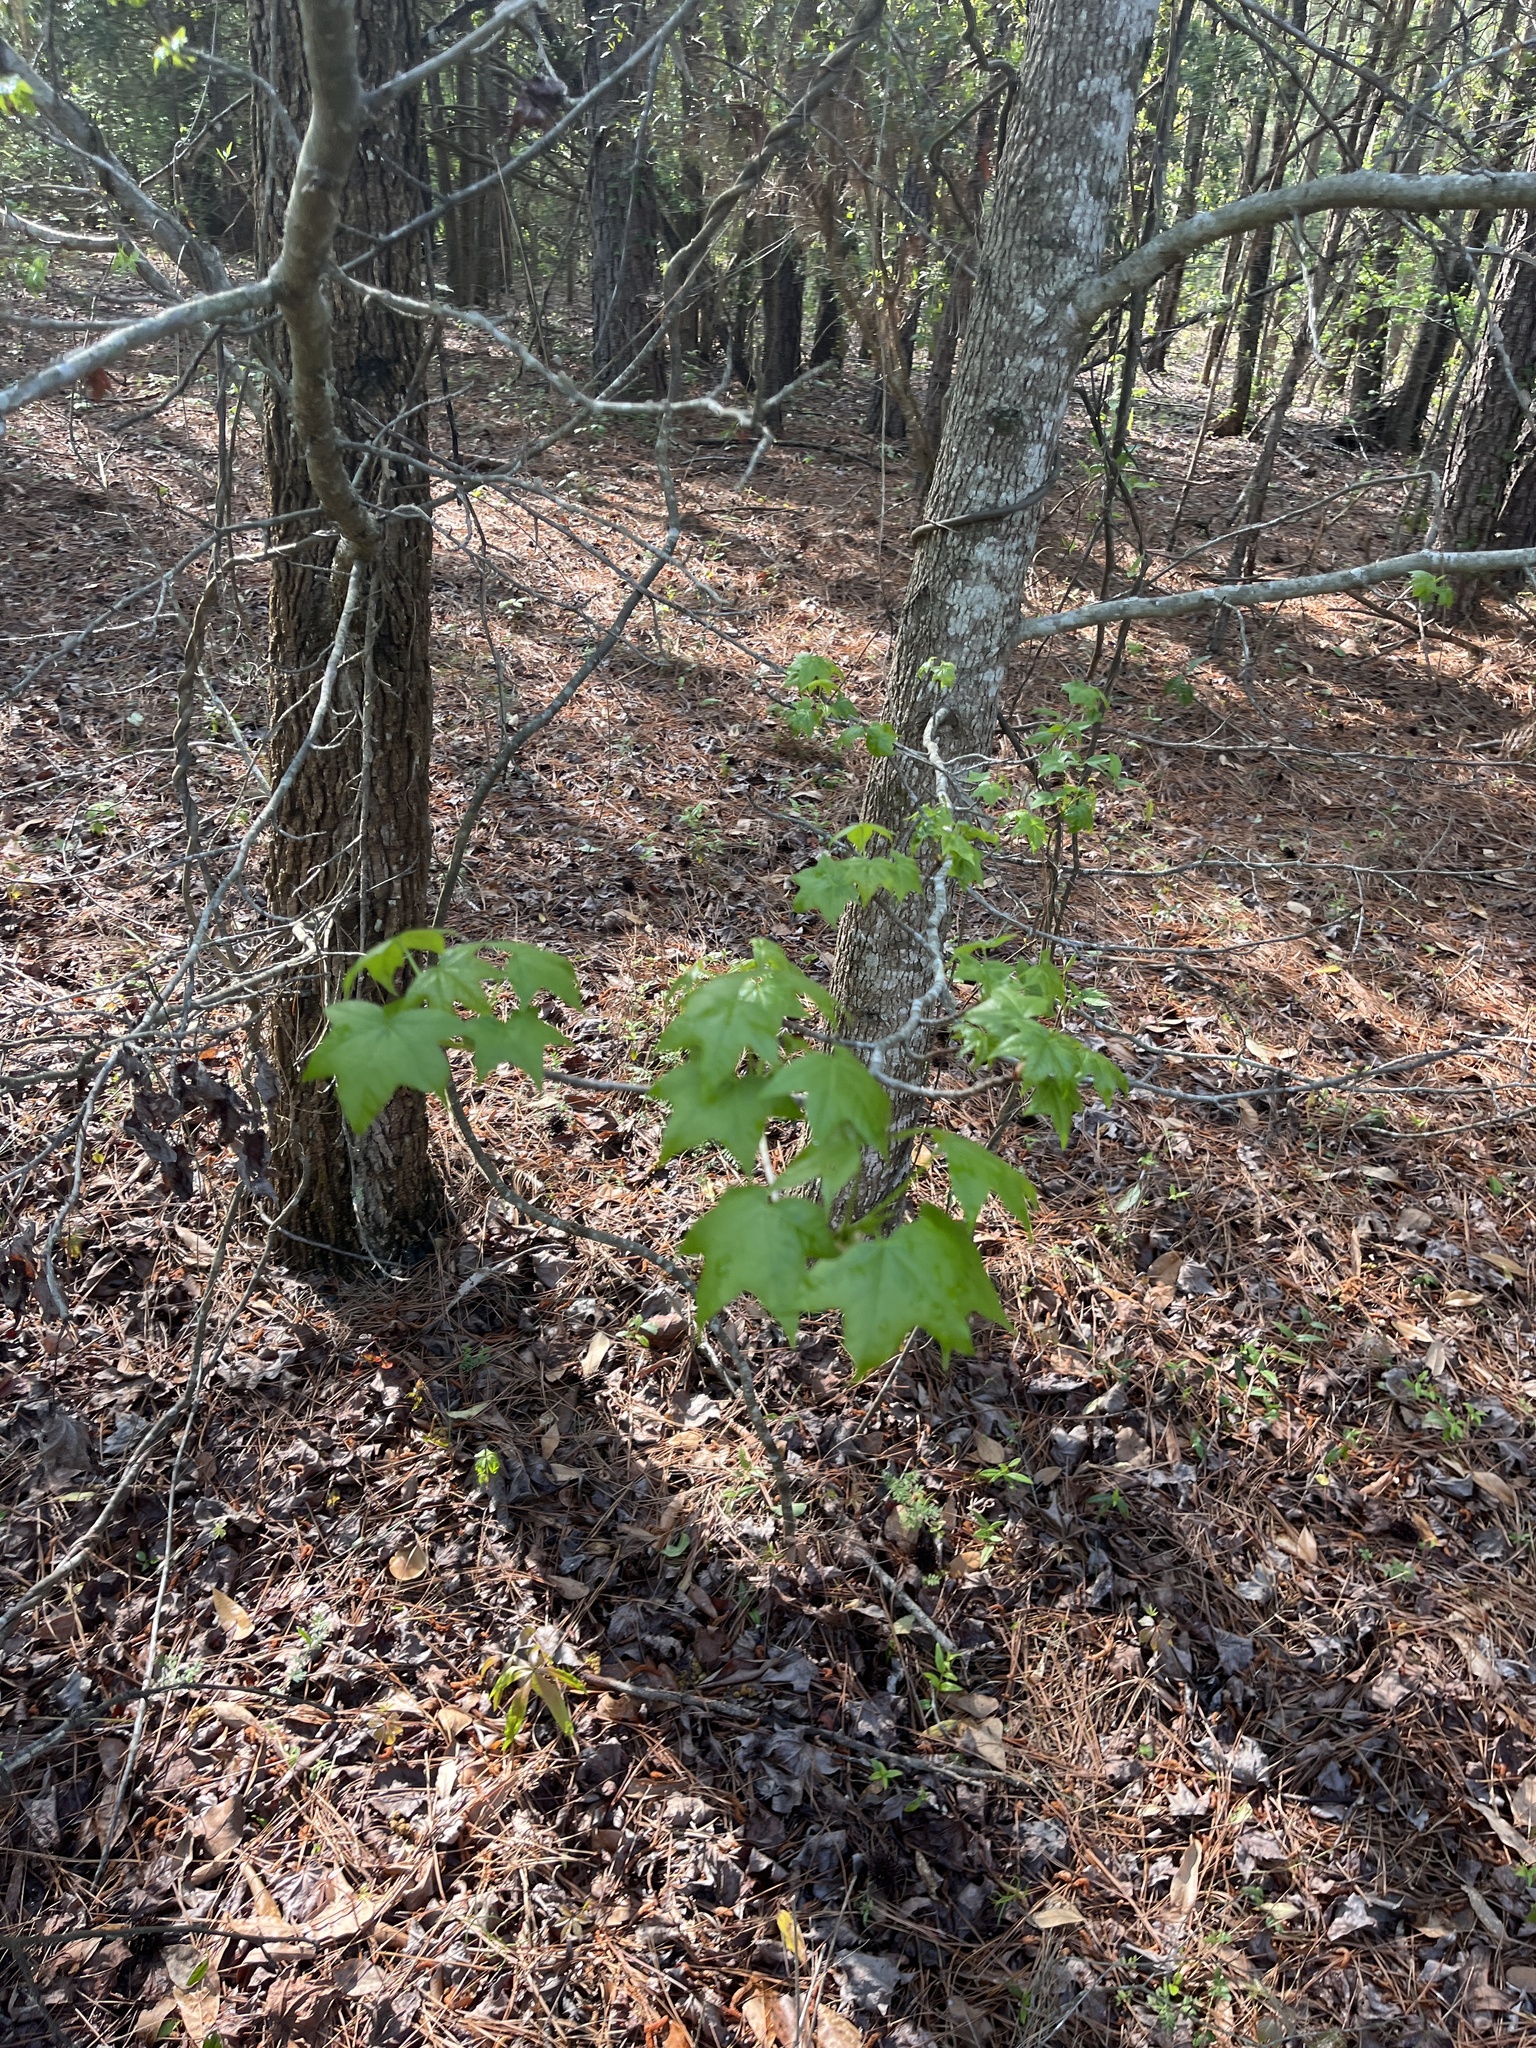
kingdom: Plantae
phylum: Tracheophyta
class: Magnoliopsida
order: Saxifragales
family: Altingiaceae
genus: Liquidambar
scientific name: Liquidambar styraciflua
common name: Sweet gum
